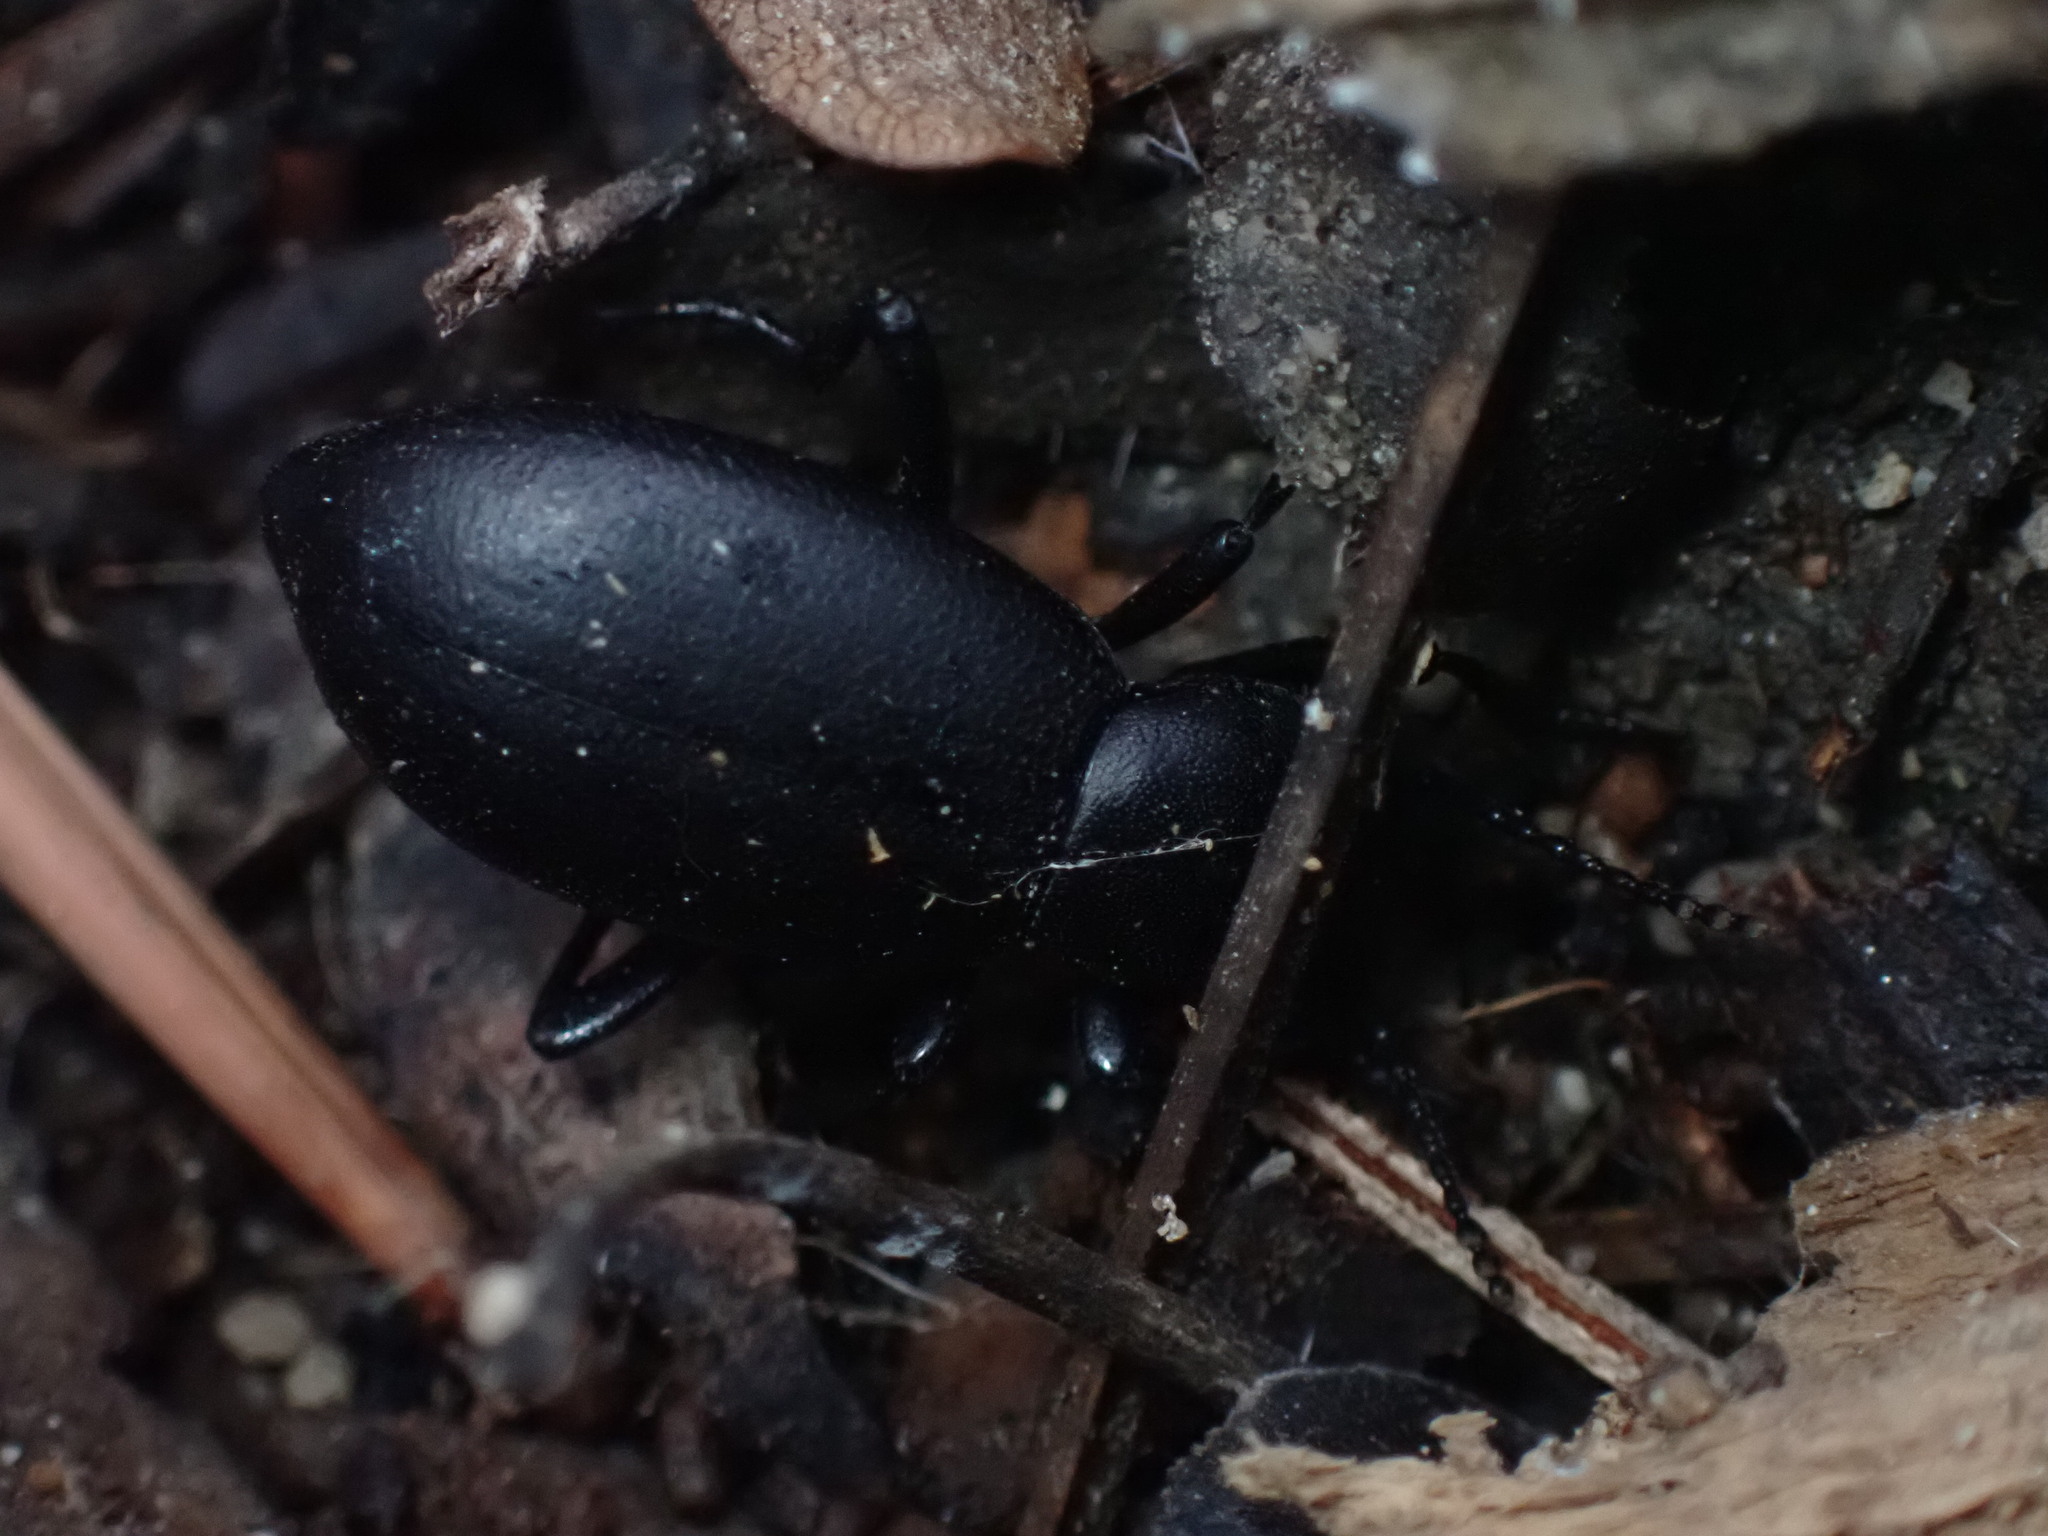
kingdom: Animalia
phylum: Arthropoda
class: Insecta
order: Coleoptera
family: Tenebrionidae
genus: Eleodes
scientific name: Eleodes nigrina
